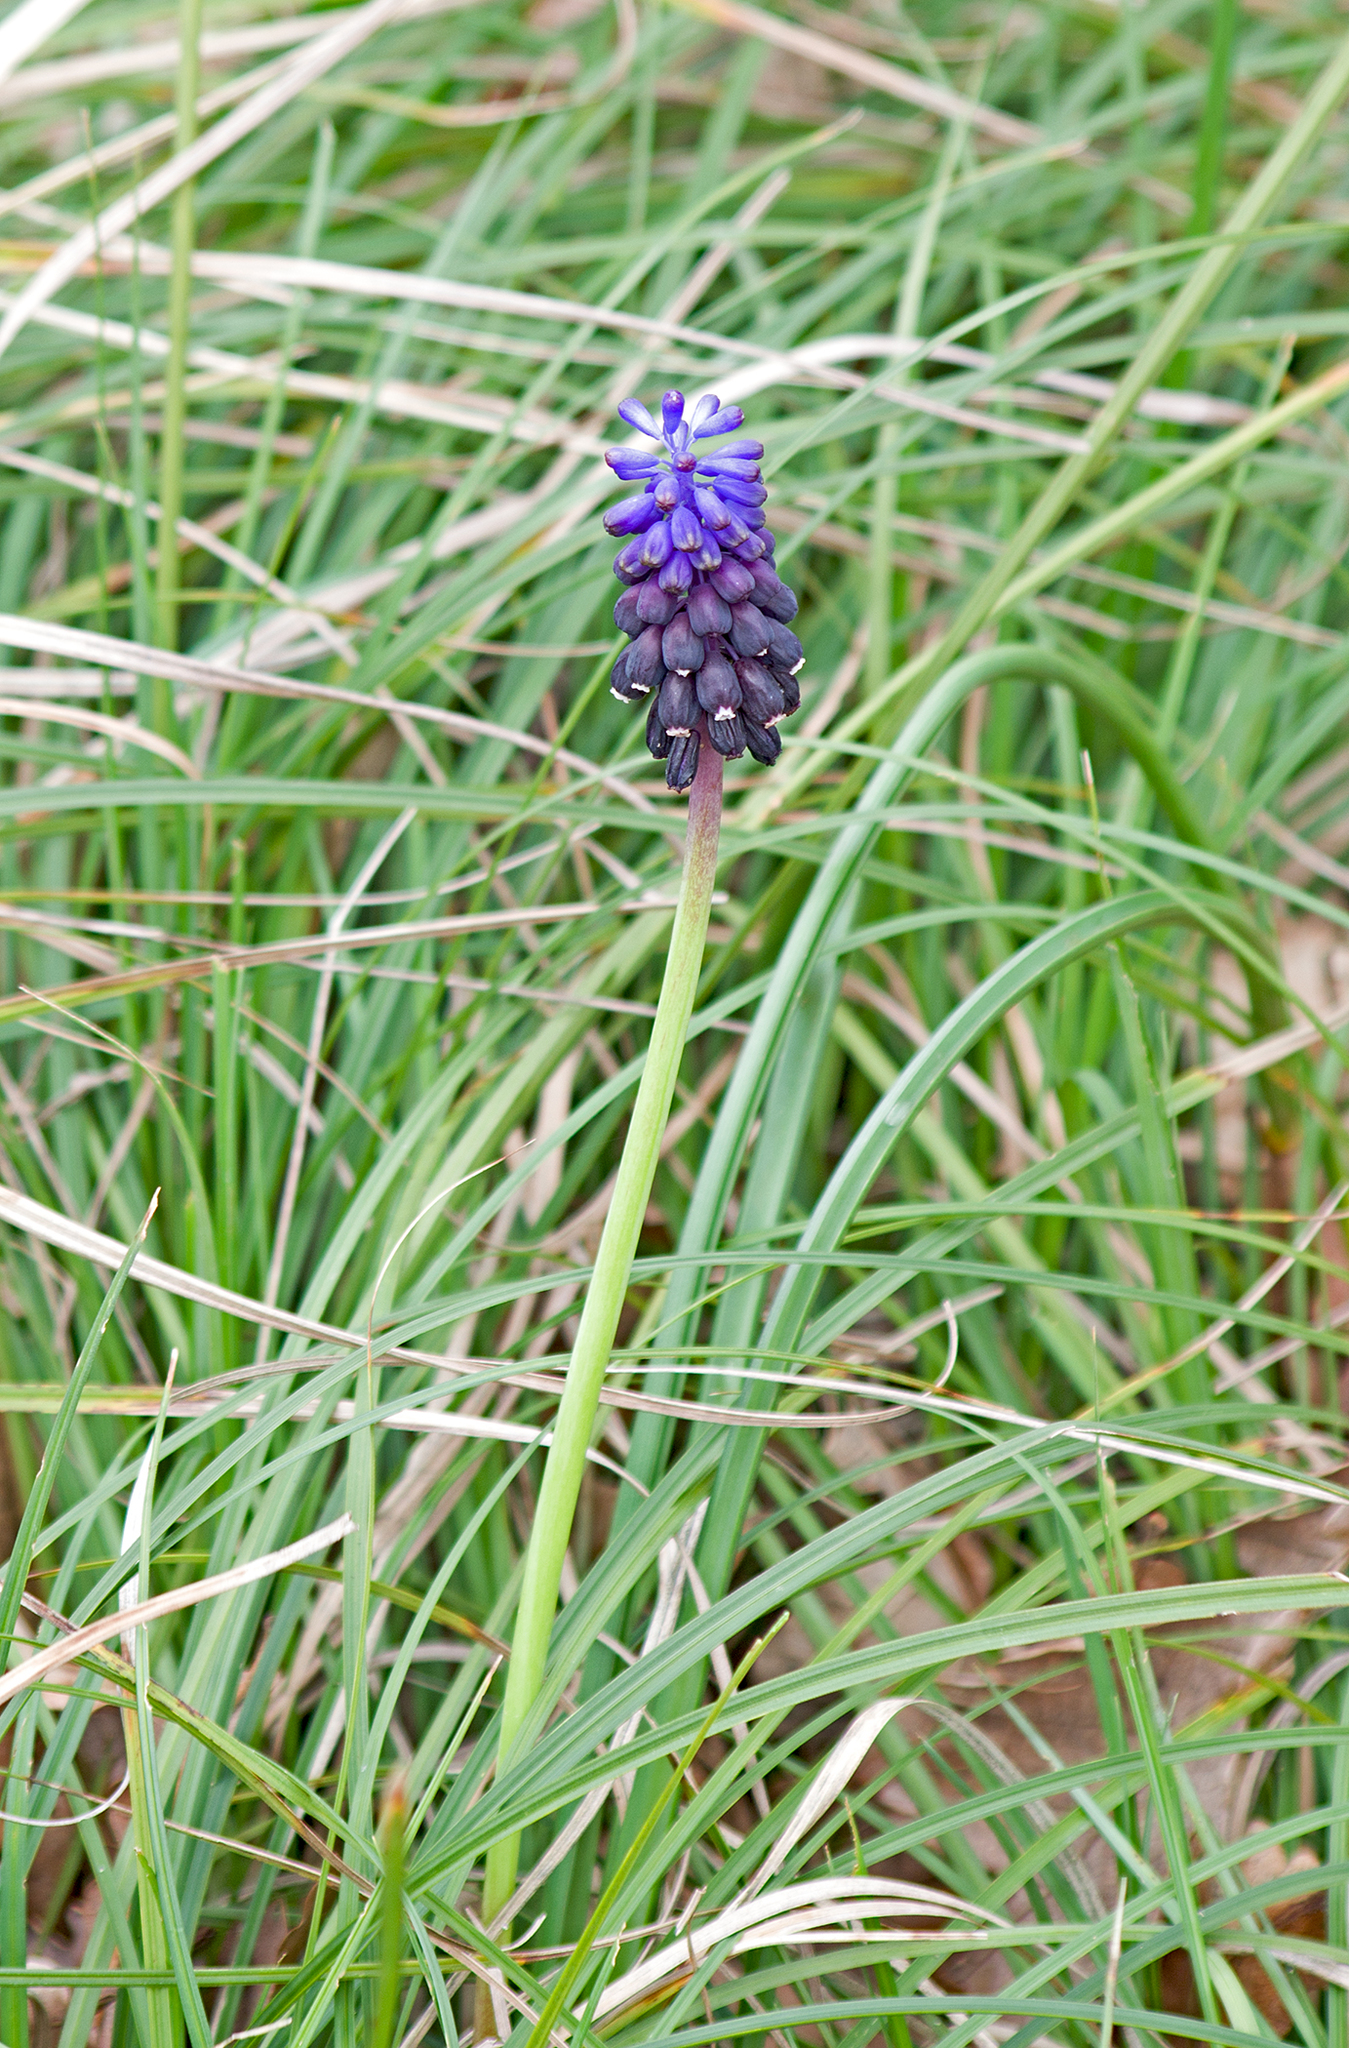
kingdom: Plantae
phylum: Tracheophyta
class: Liliopsida
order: Asparagales
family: Asparagaceae
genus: Muscari
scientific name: Muscari neglectum
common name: Grape-hyacinth
